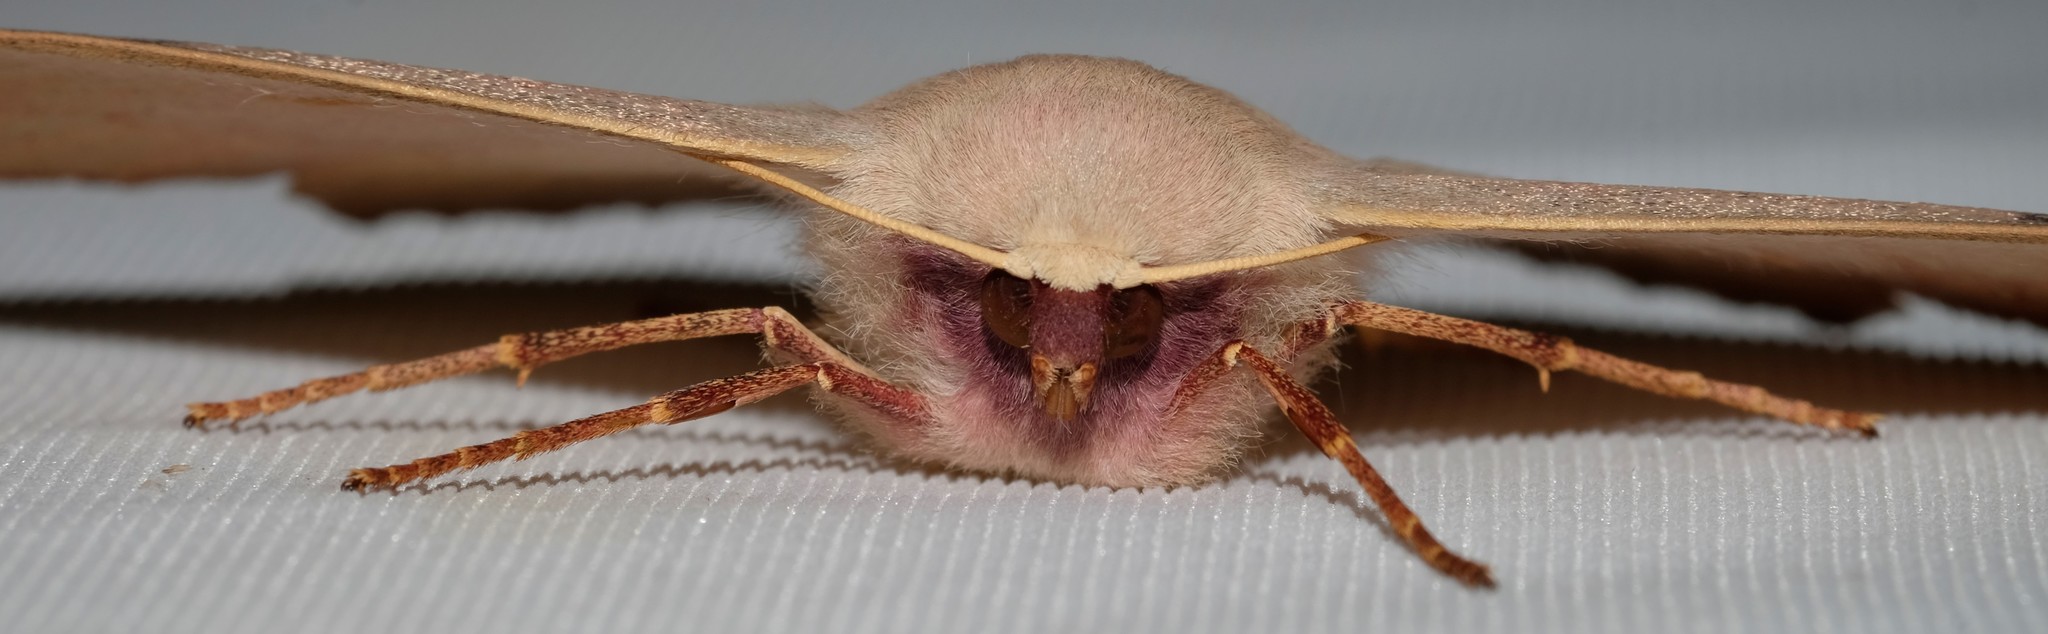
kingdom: Animalia
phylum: Arthropoda
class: Insecta
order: Lepidoptera
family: Geometridae
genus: Monoctenia
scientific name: Monoctenia falernaria
